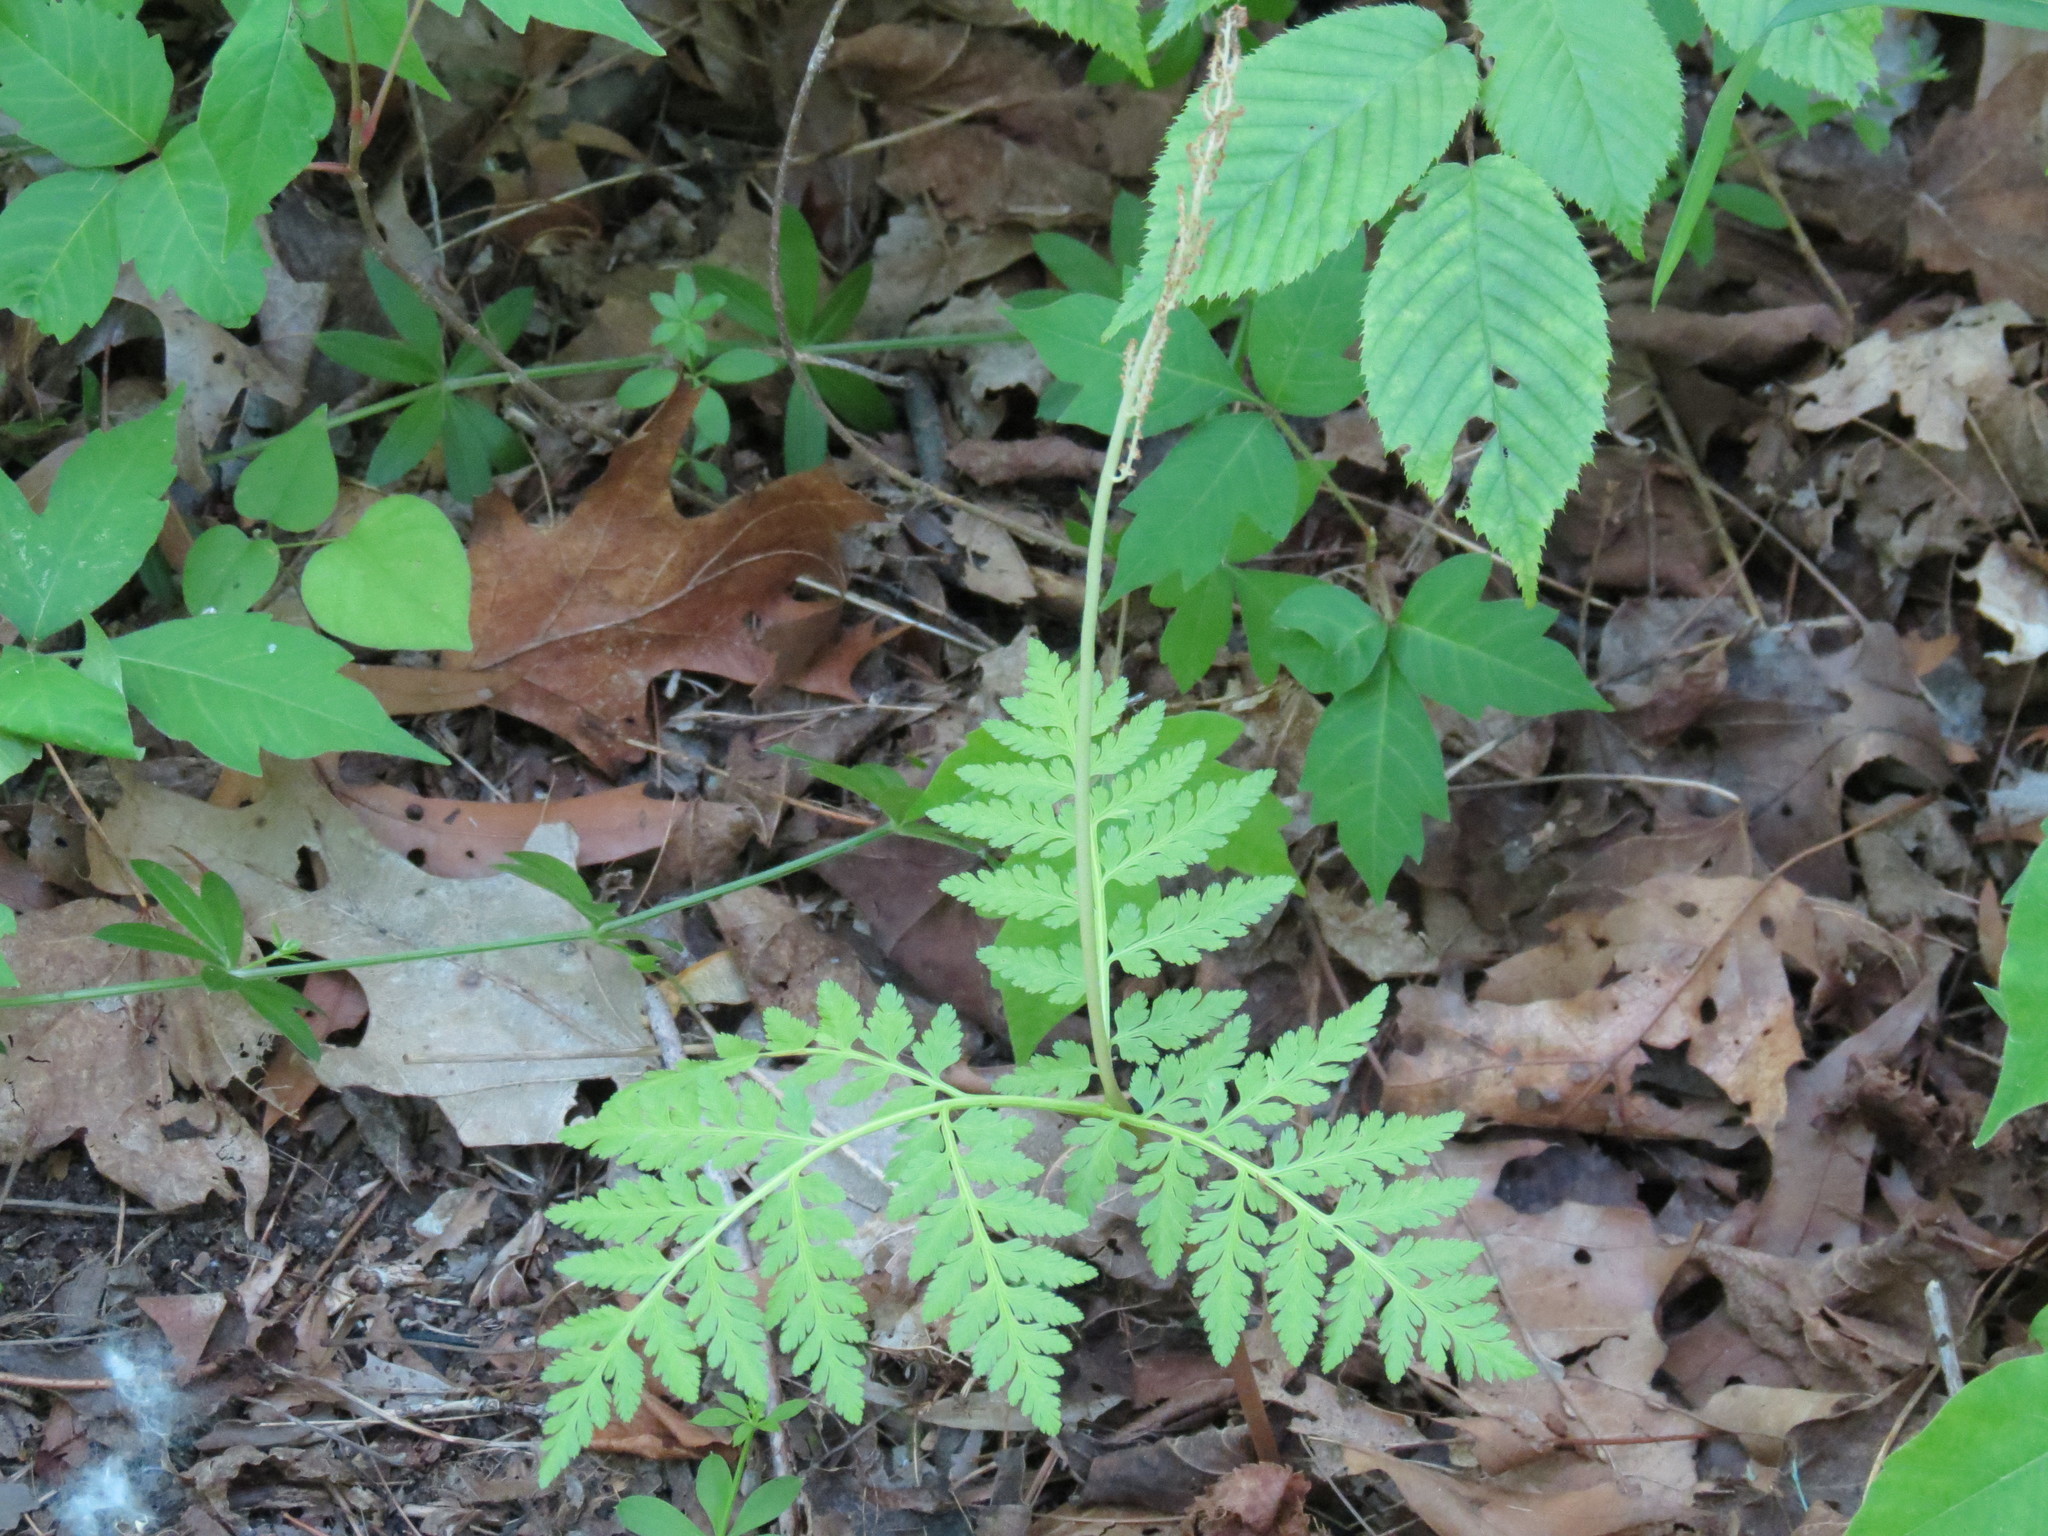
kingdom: Plantae
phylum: Tracheophyta
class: Polypodiopsida
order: Ophioglossales
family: Ophioglossaceae
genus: Botrypus
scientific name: Botrypus virginianus
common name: Common grapefern
